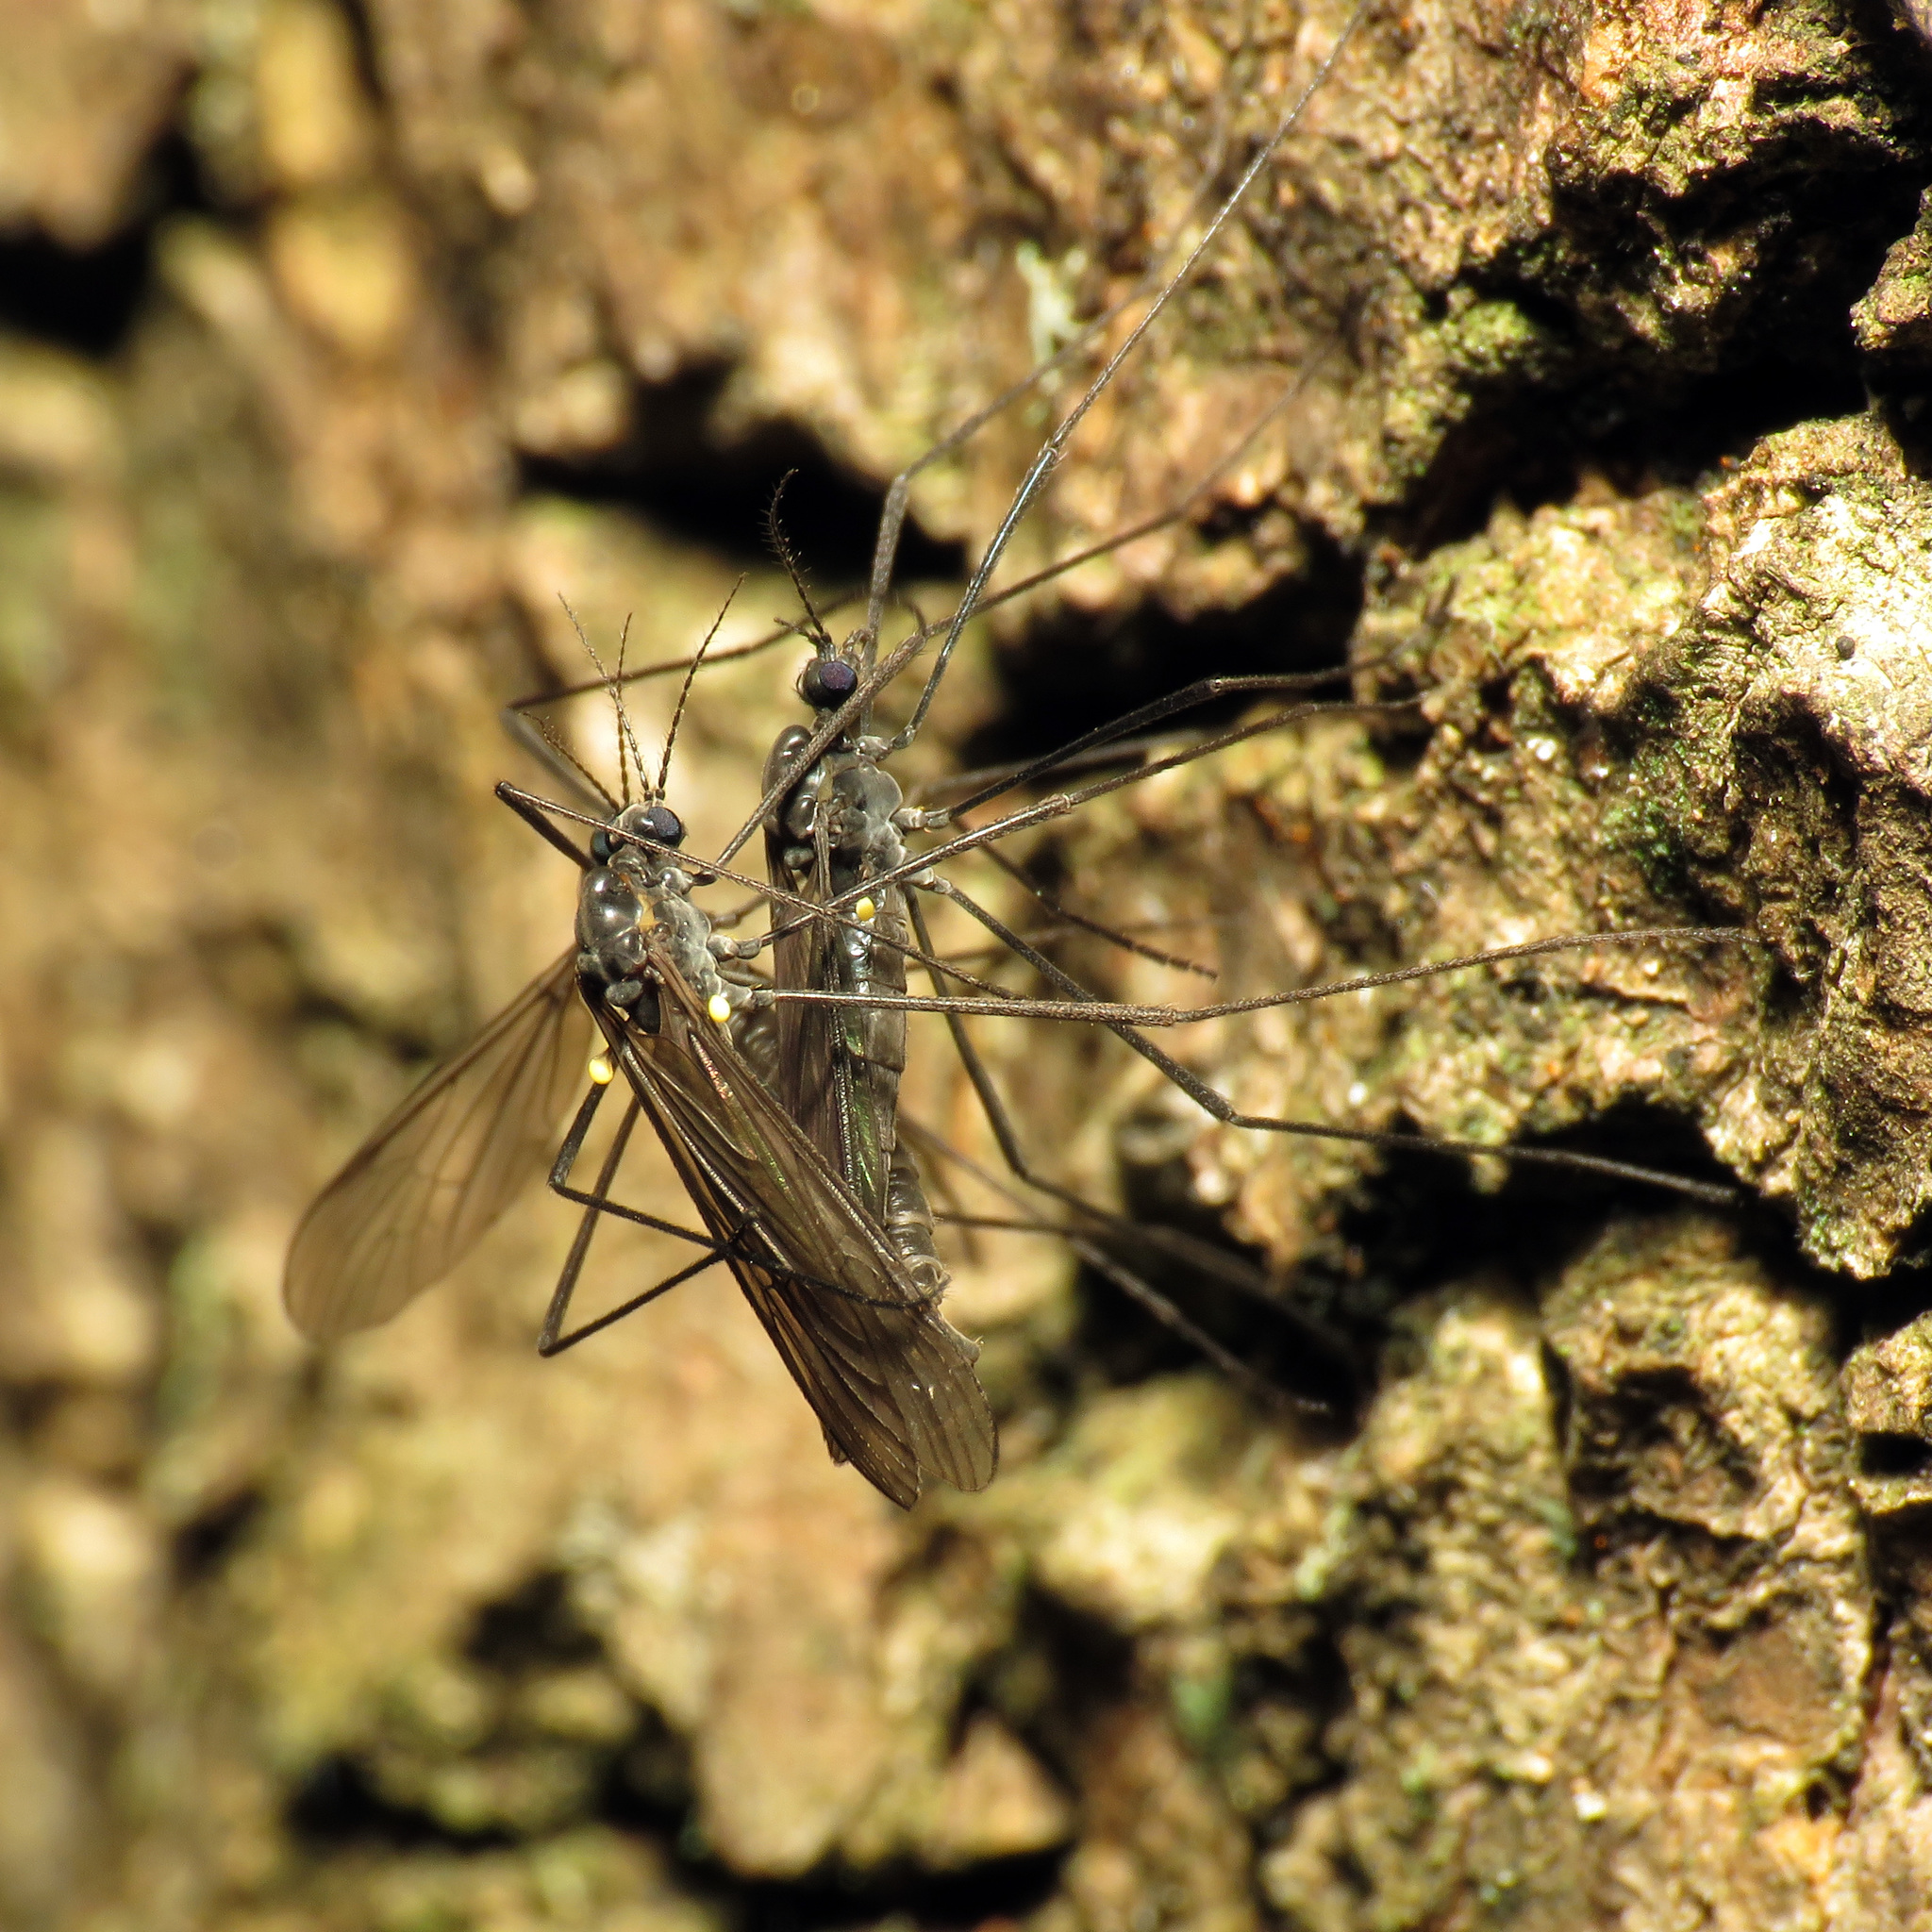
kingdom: Animalia
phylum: Arthropoda
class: Insecta
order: Diptera
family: Limoniidae
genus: Gnophomyia
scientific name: Gnophomyia tristissima
